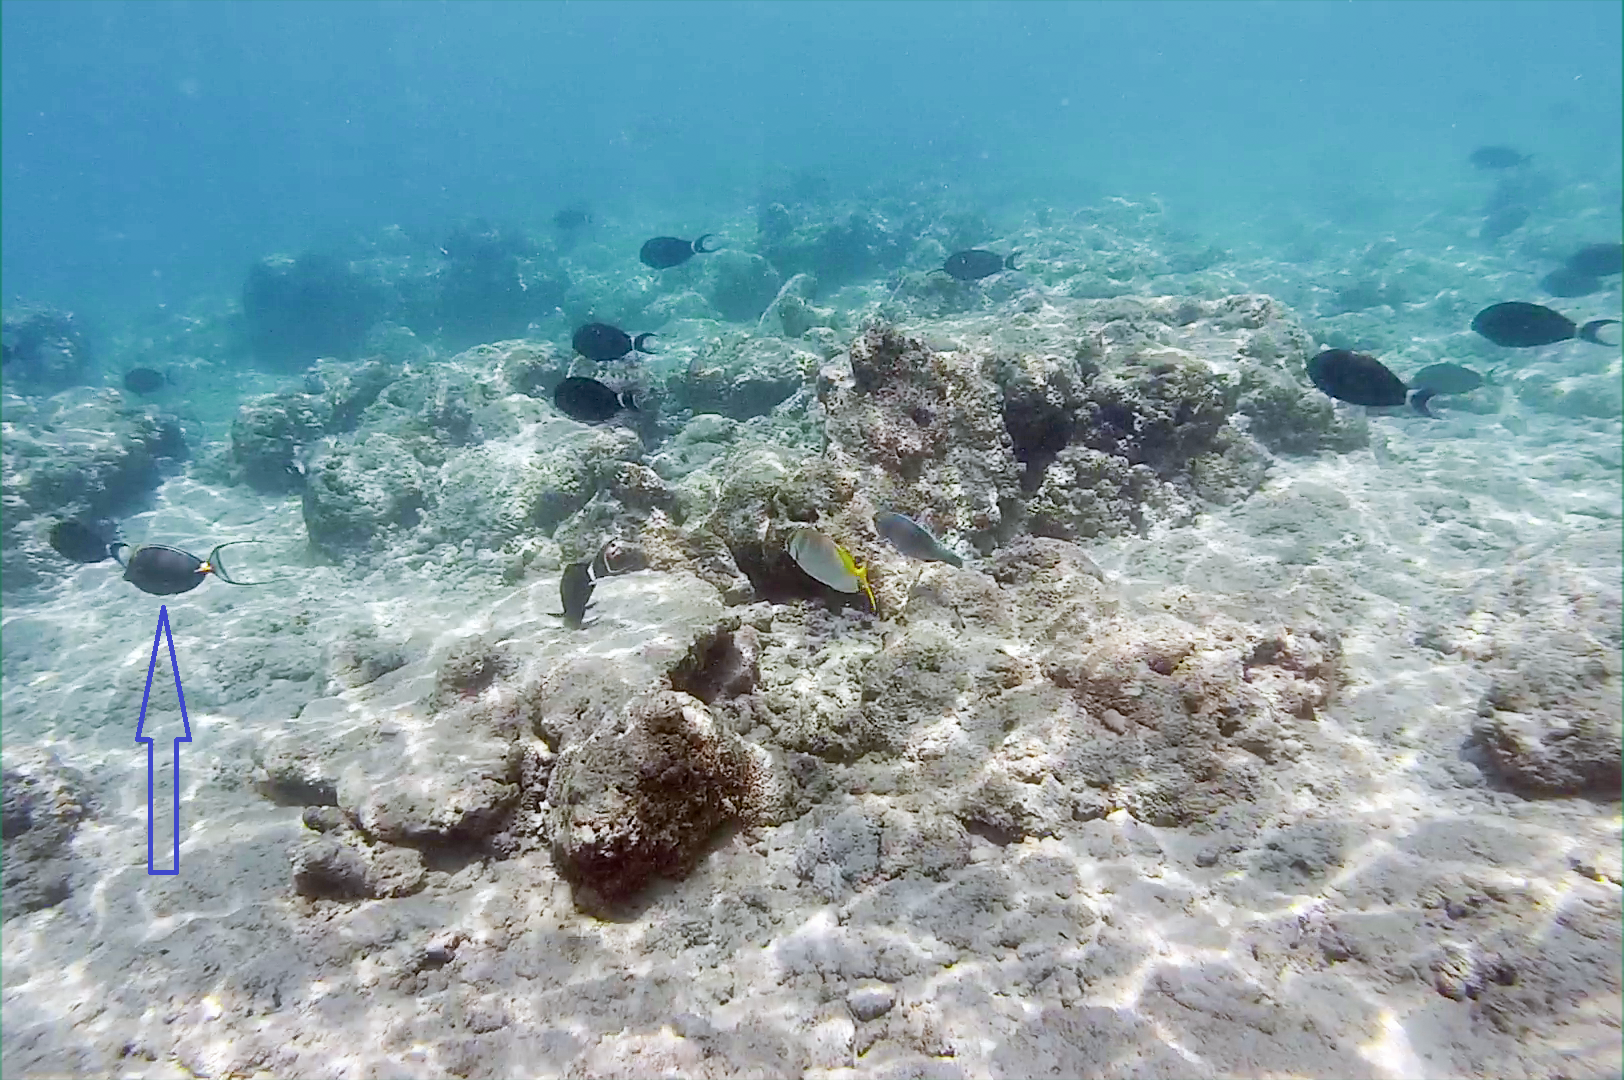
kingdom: Animalia
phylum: Chordata
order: Perciformes
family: Acanthuridae
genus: Naso
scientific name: Naso elegans
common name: Orangespine unicornfish
